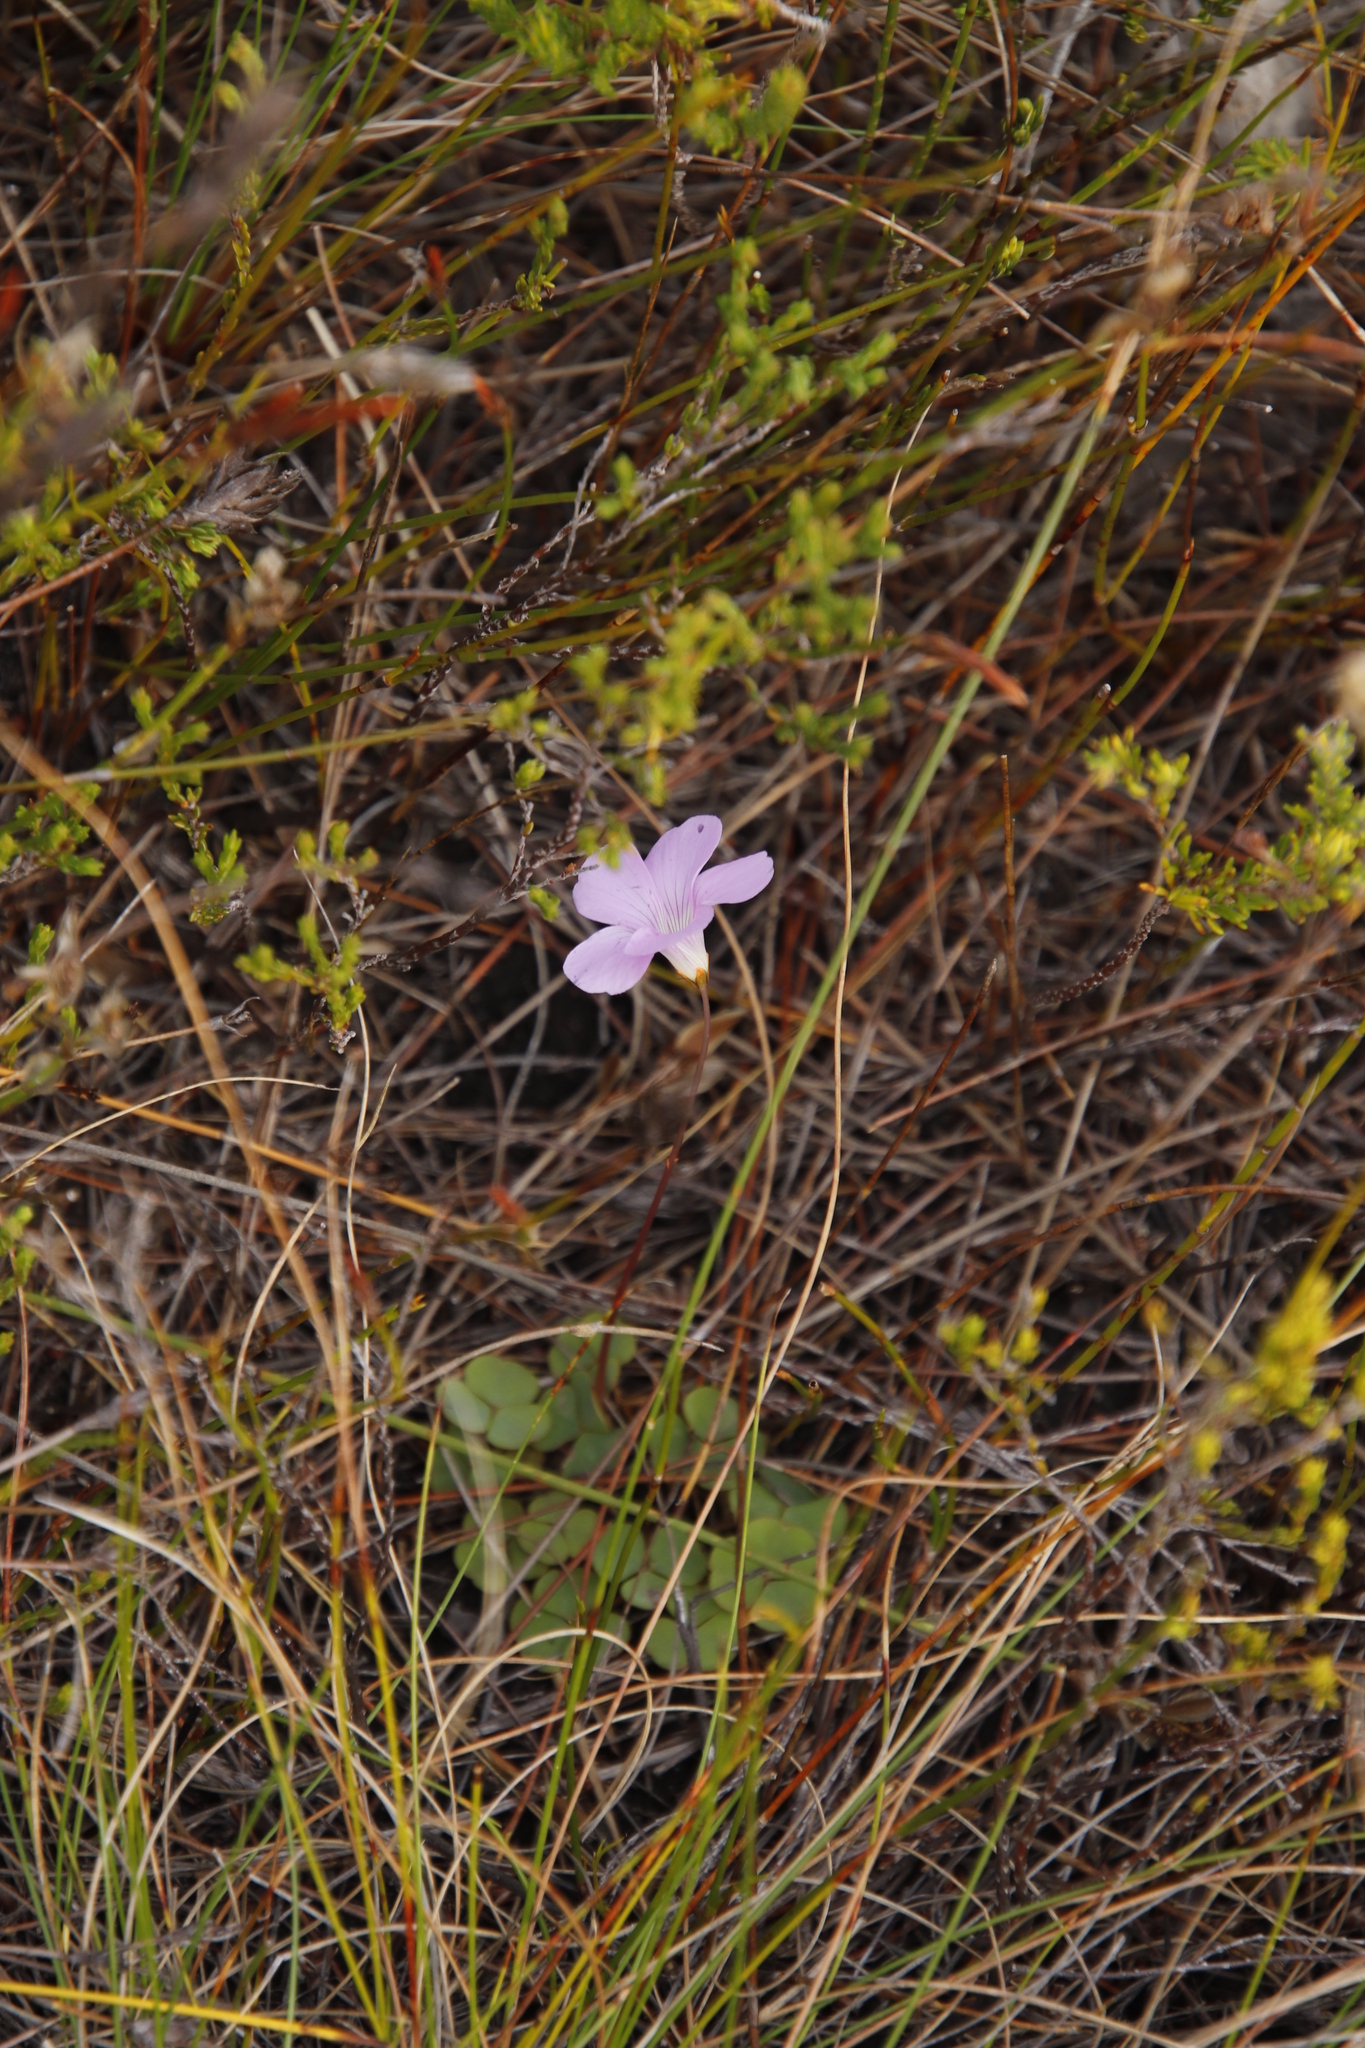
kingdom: Plantae
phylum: Tracheophyta
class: Magnoliopsida
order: Oxalidales
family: Oxalidaceae
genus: Oxalis
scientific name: Oxalis commutata
